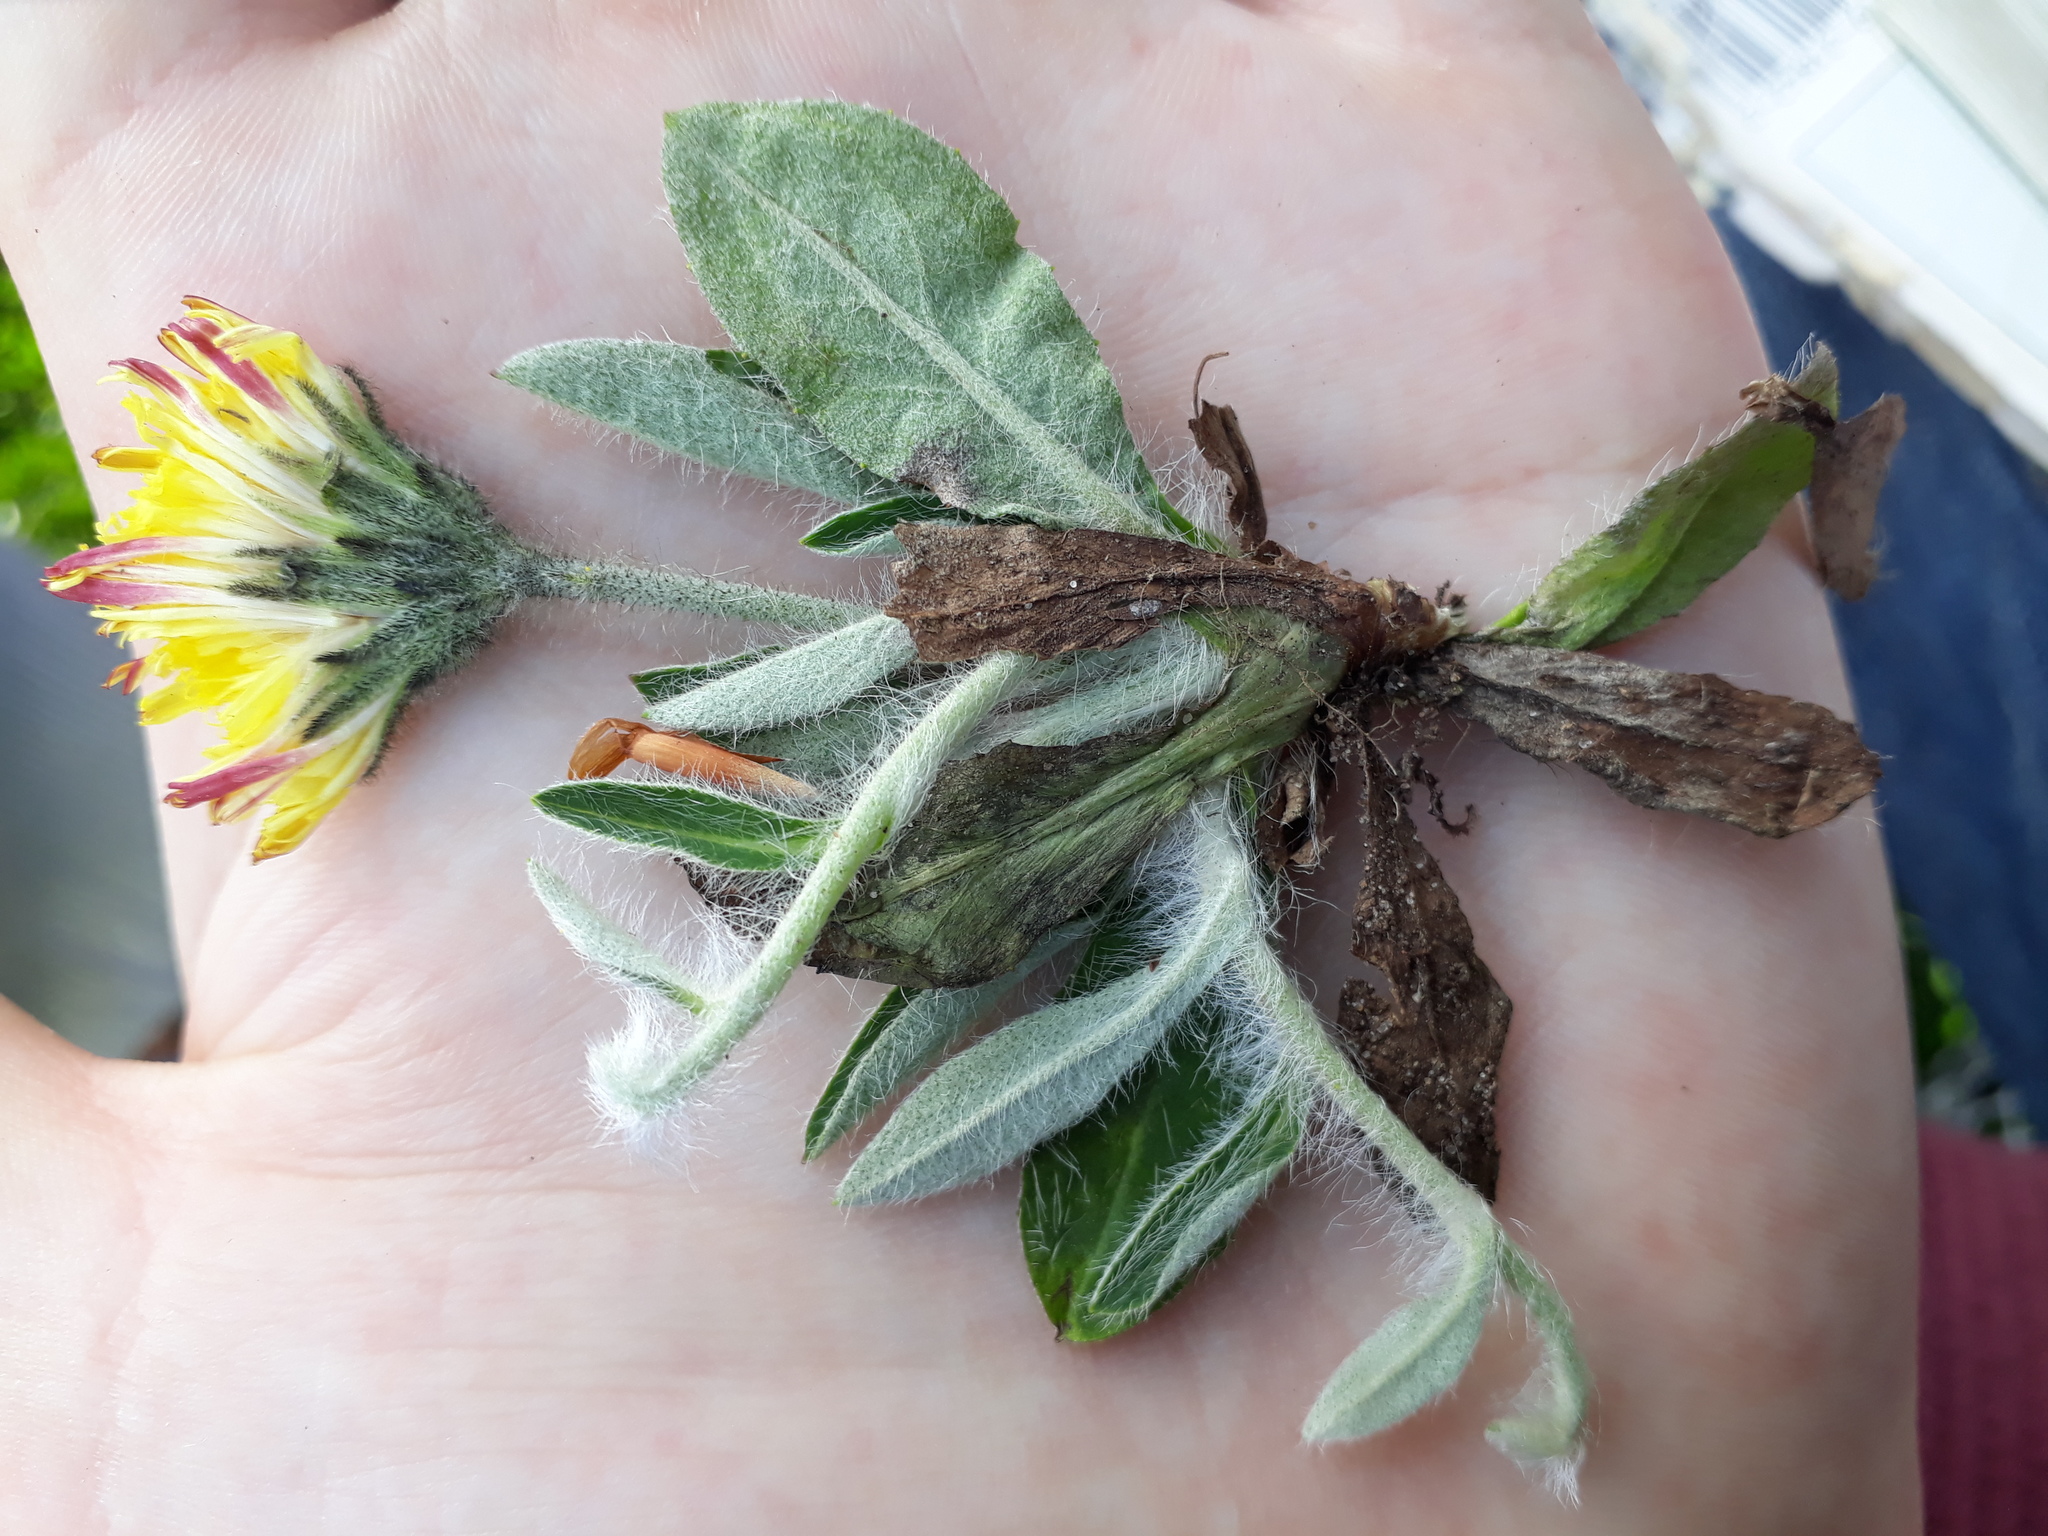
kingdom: Plantae
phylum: Tracheophyta
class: Magnoliopsida
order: Asterales
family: Asteraceae
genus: Pilosella
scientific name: Pilosella officinarum
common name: Mouse-ear hawkweed
